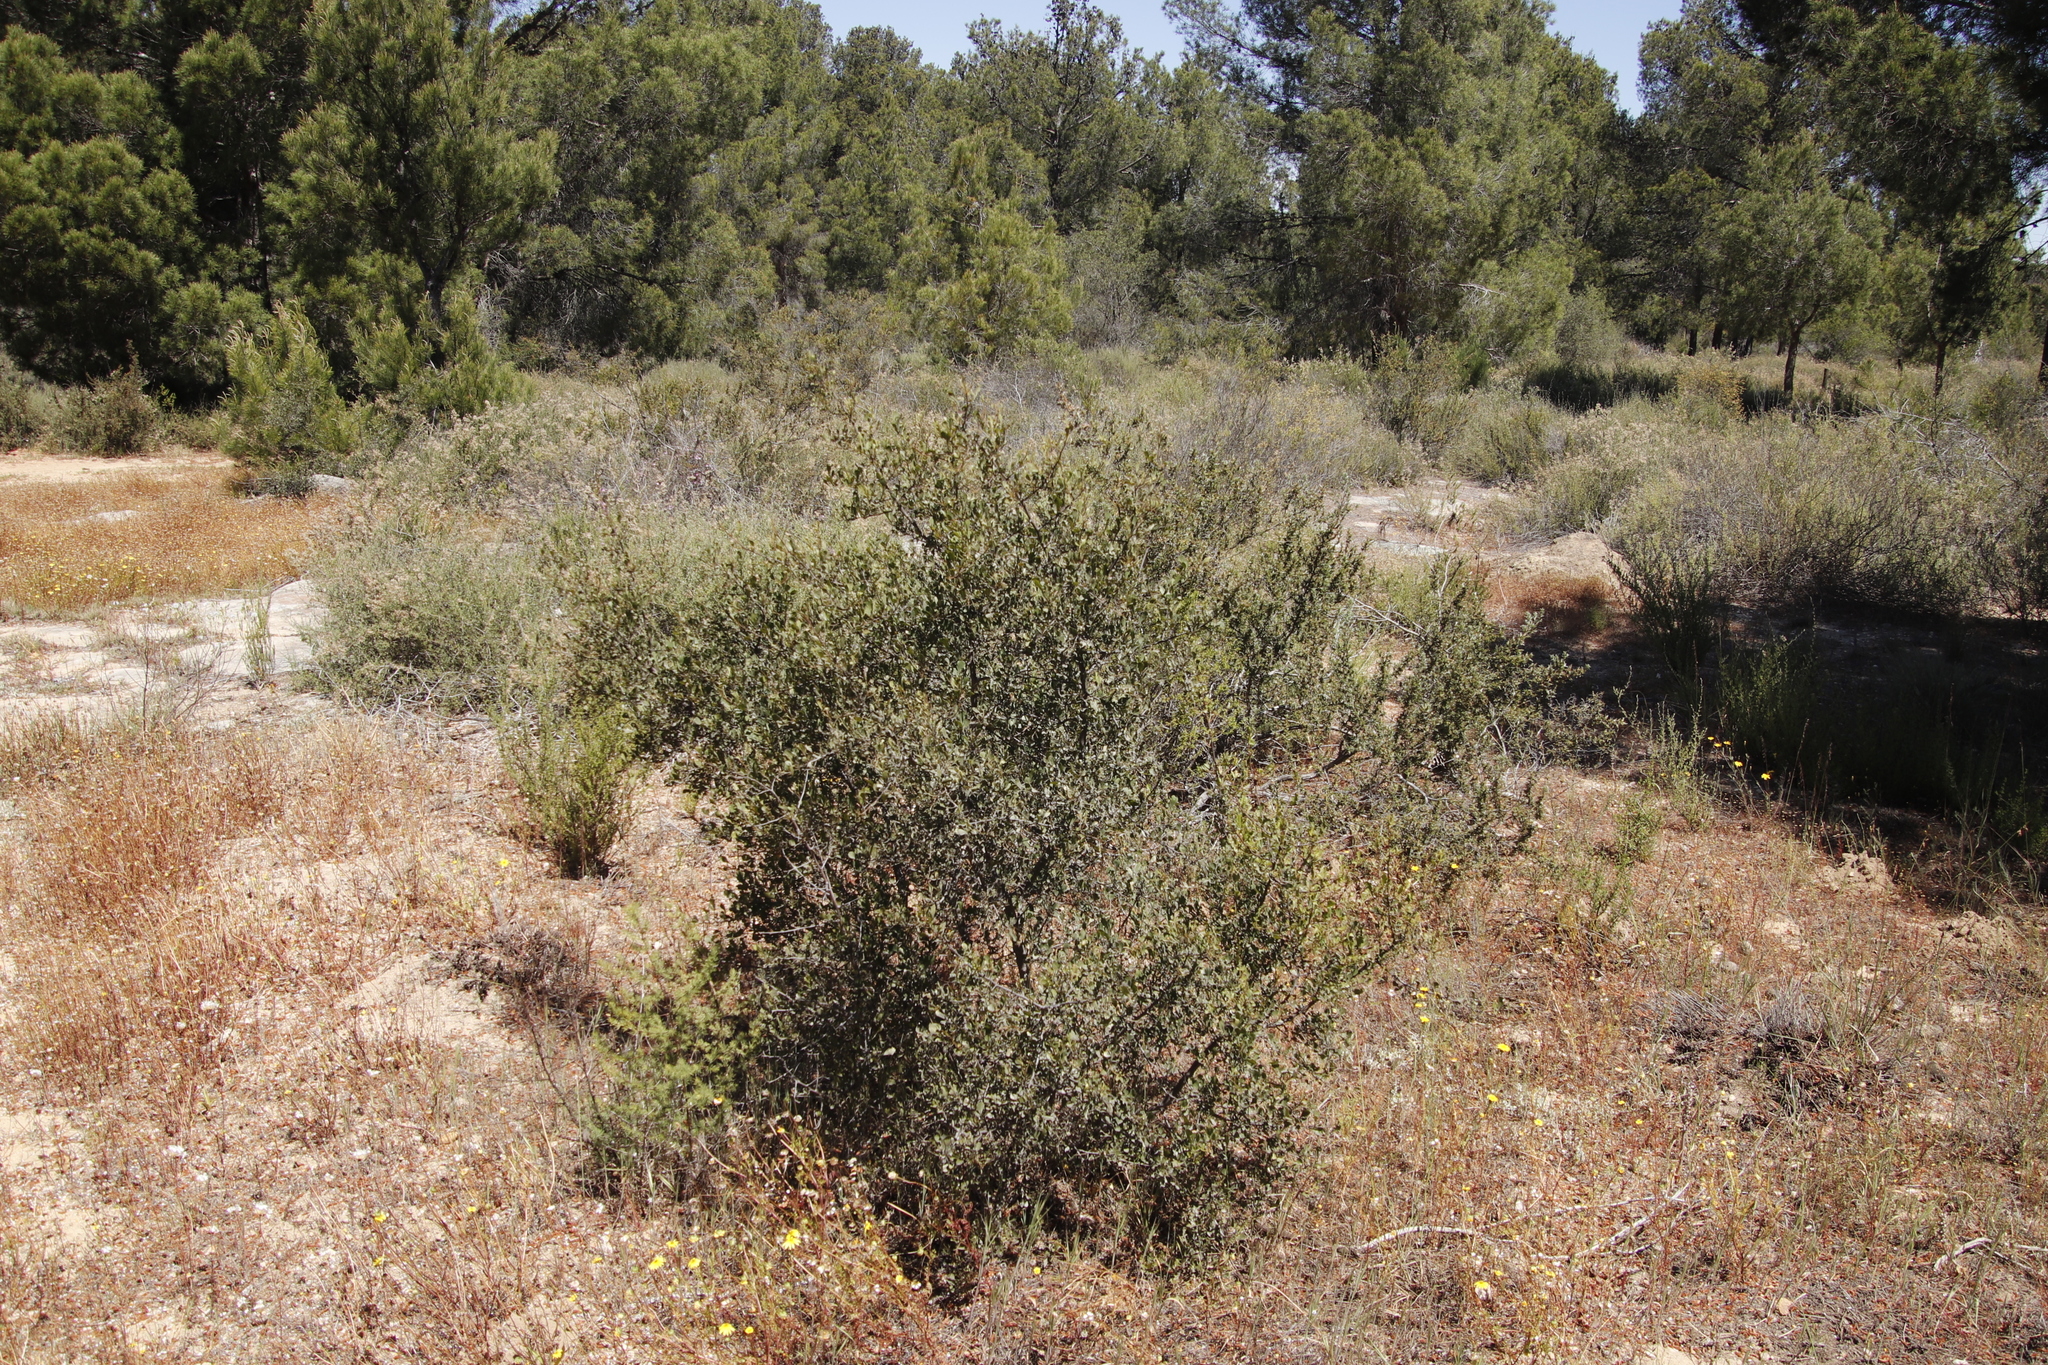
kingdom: Plantae
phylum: Tracheophyta
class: Magnoliopsida
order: Sapindales
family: Anacardiaceae
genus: Searsia
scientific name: Searsia undulata
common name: Namaqua kunibush
